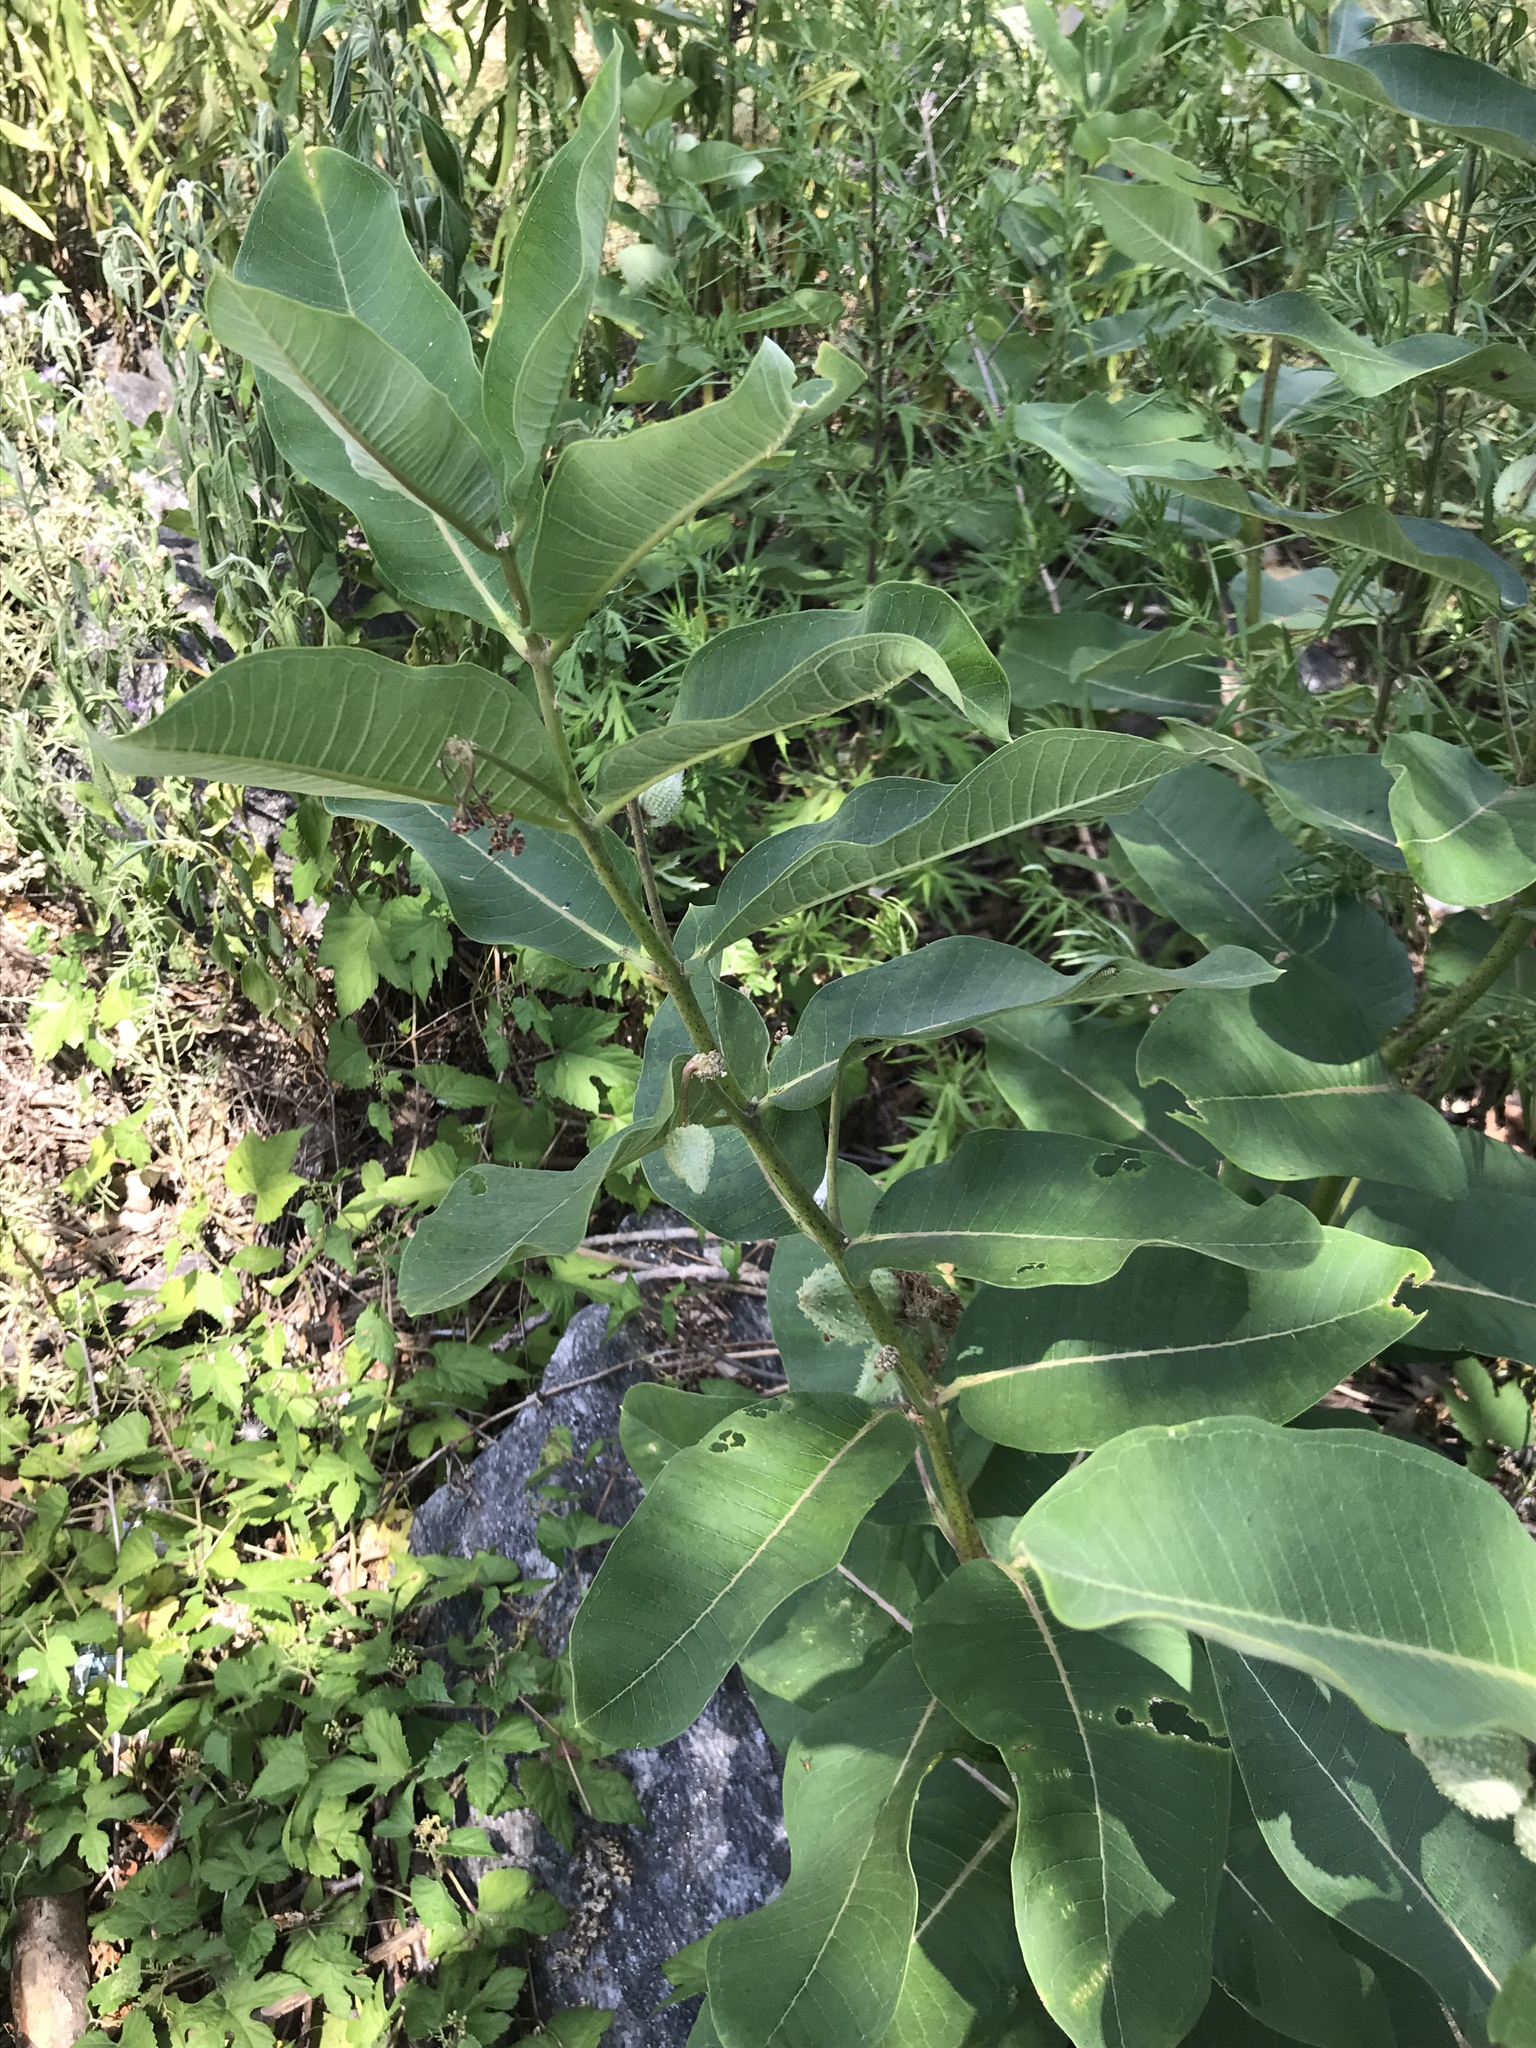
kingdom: Plantae
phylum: Tracheophyta
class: Magnoliopsida
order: Gentianales
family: Apocynaceae
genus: Asclepias
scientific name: Asclepias syriaca
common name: Common milkweed
